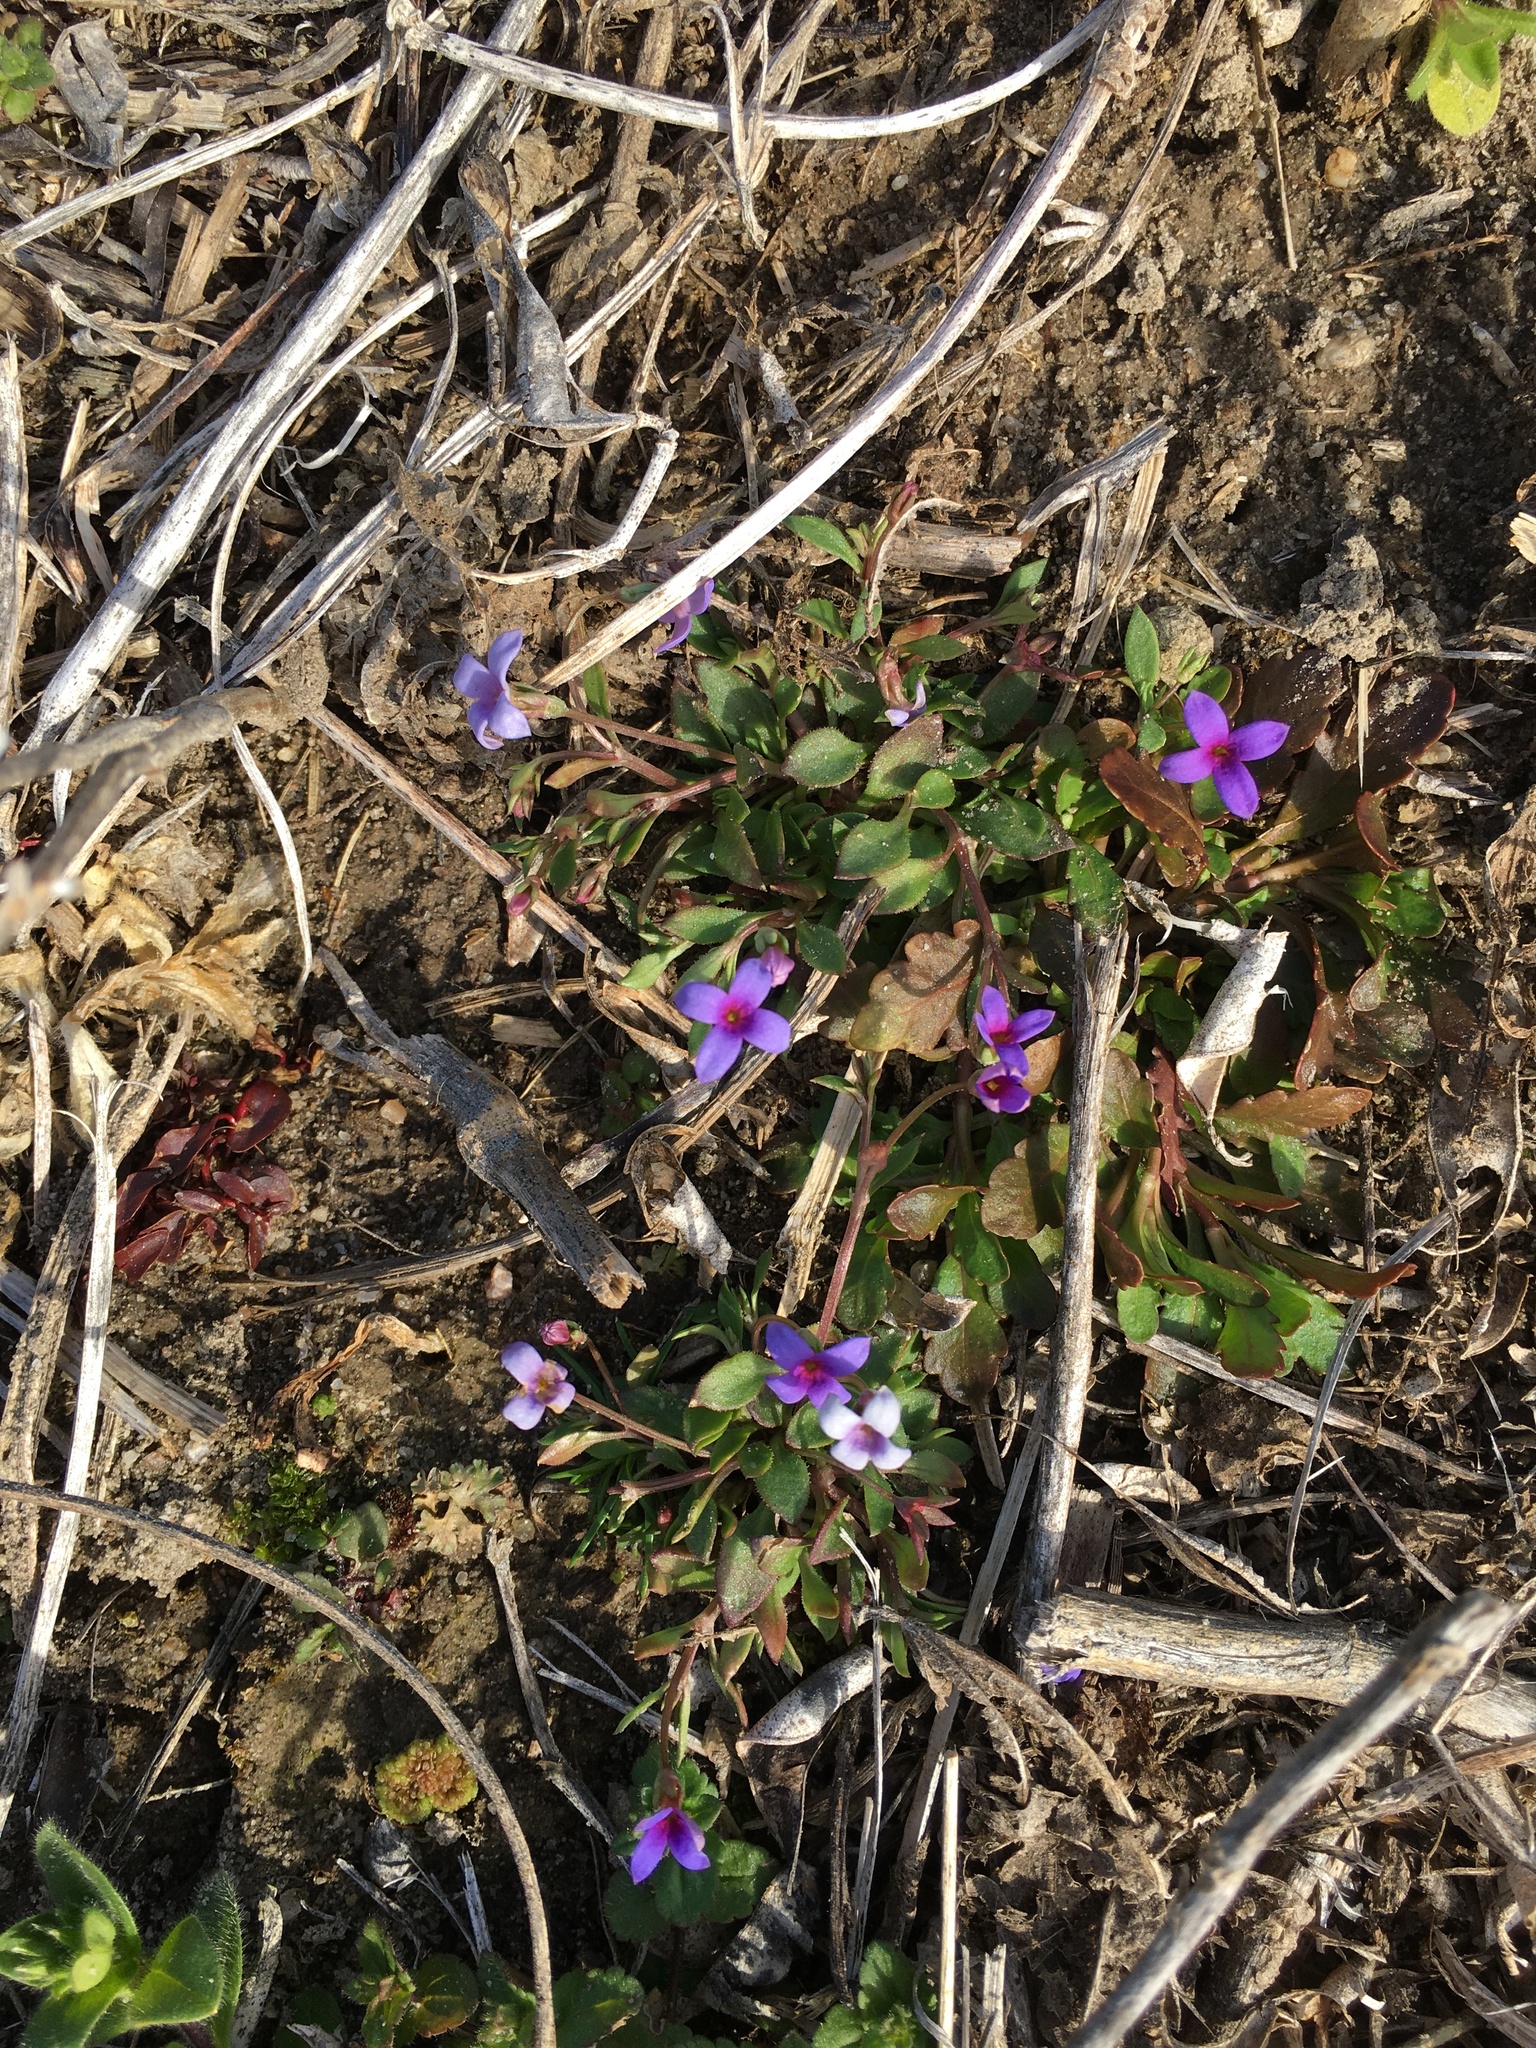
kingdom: Plantae
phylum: Tracheophyta
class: Magnoliopsida
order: Gentianales
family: Rubiaceae
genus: Houstonia
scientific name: Houstonia pusilla
